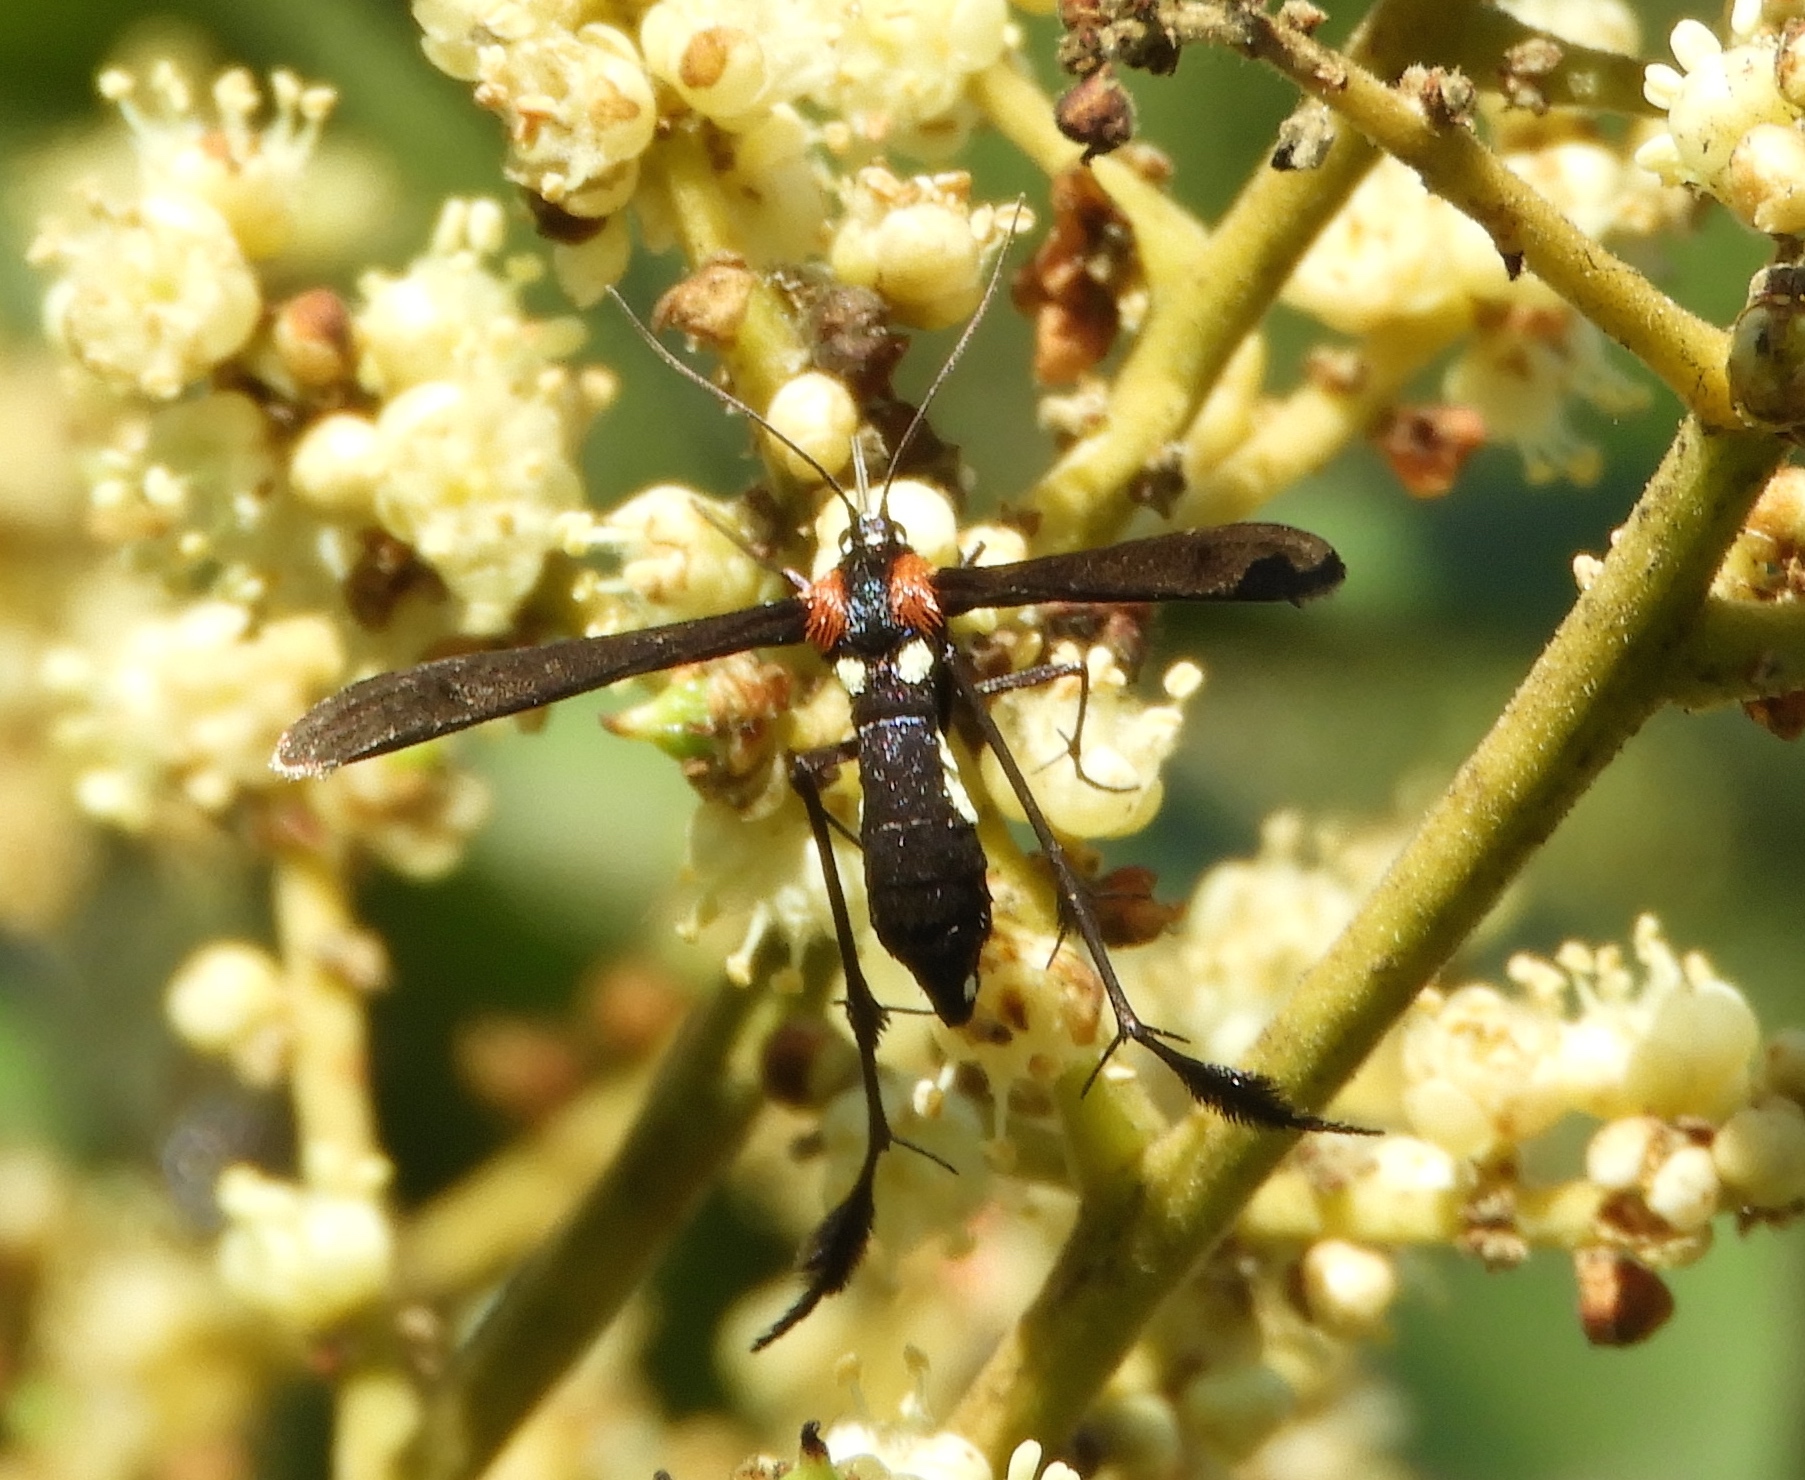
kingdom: Animalia
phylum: Arthropoda
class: Insecta
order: Lepidoptera
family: Pterophoridae
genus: Hellinsia
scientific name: Hellinsia chamelai
